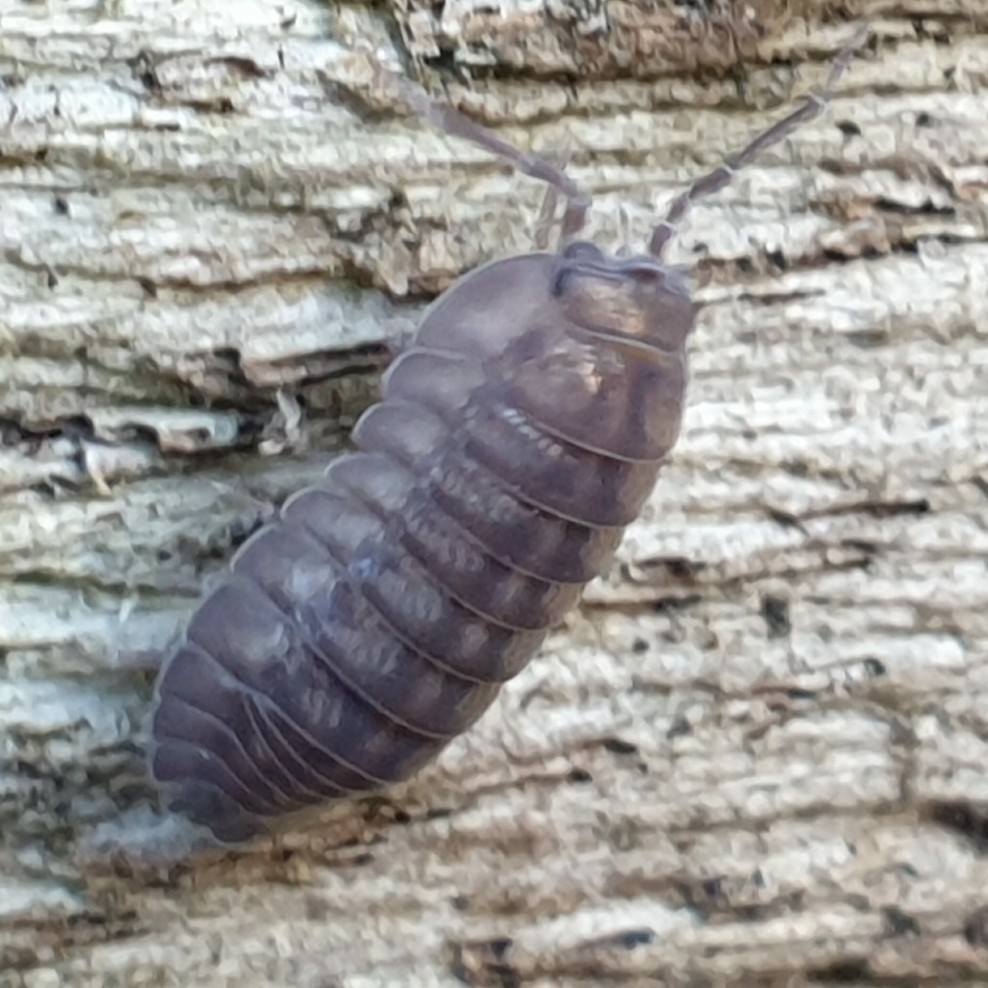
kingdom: Animalia
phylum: Arthropoda
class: Malacostraca
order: Isopoda
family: Armadillidiidae
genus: Armadillidium
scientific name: Armadillidium nasatum
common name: Isopod
